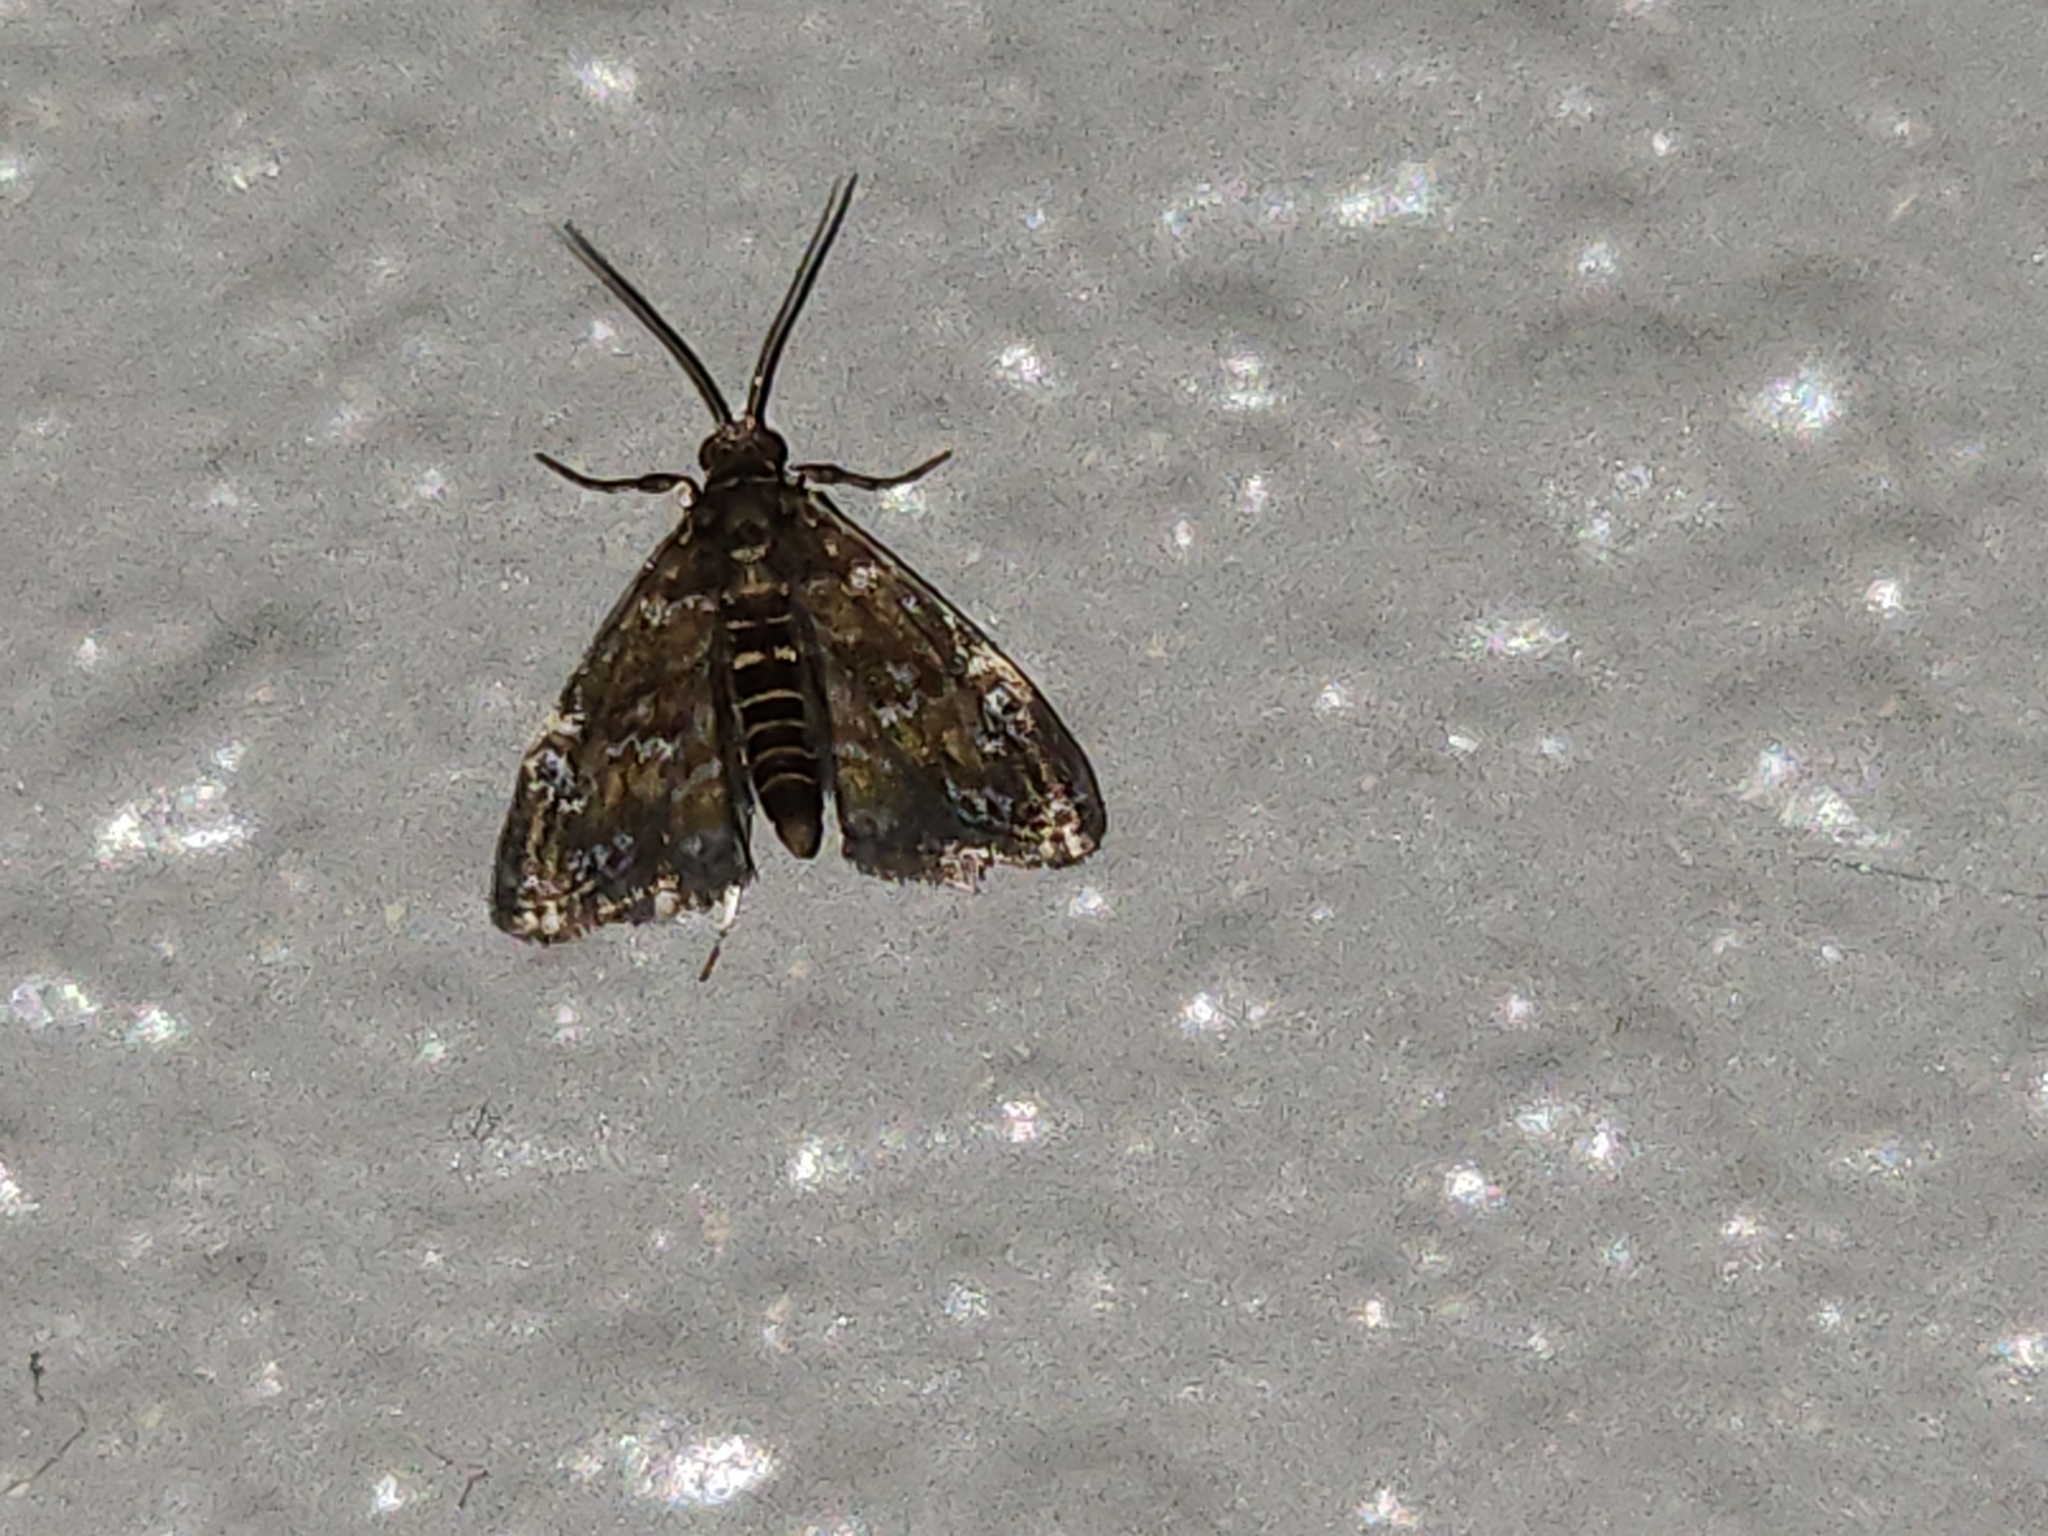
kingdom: Animalia
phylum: Arthropoda
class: Insecta
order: Lepidoptera
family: Crambidae
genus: Elophila
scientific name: Elophila obliteralis
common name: Waterlily leafcutter moth
